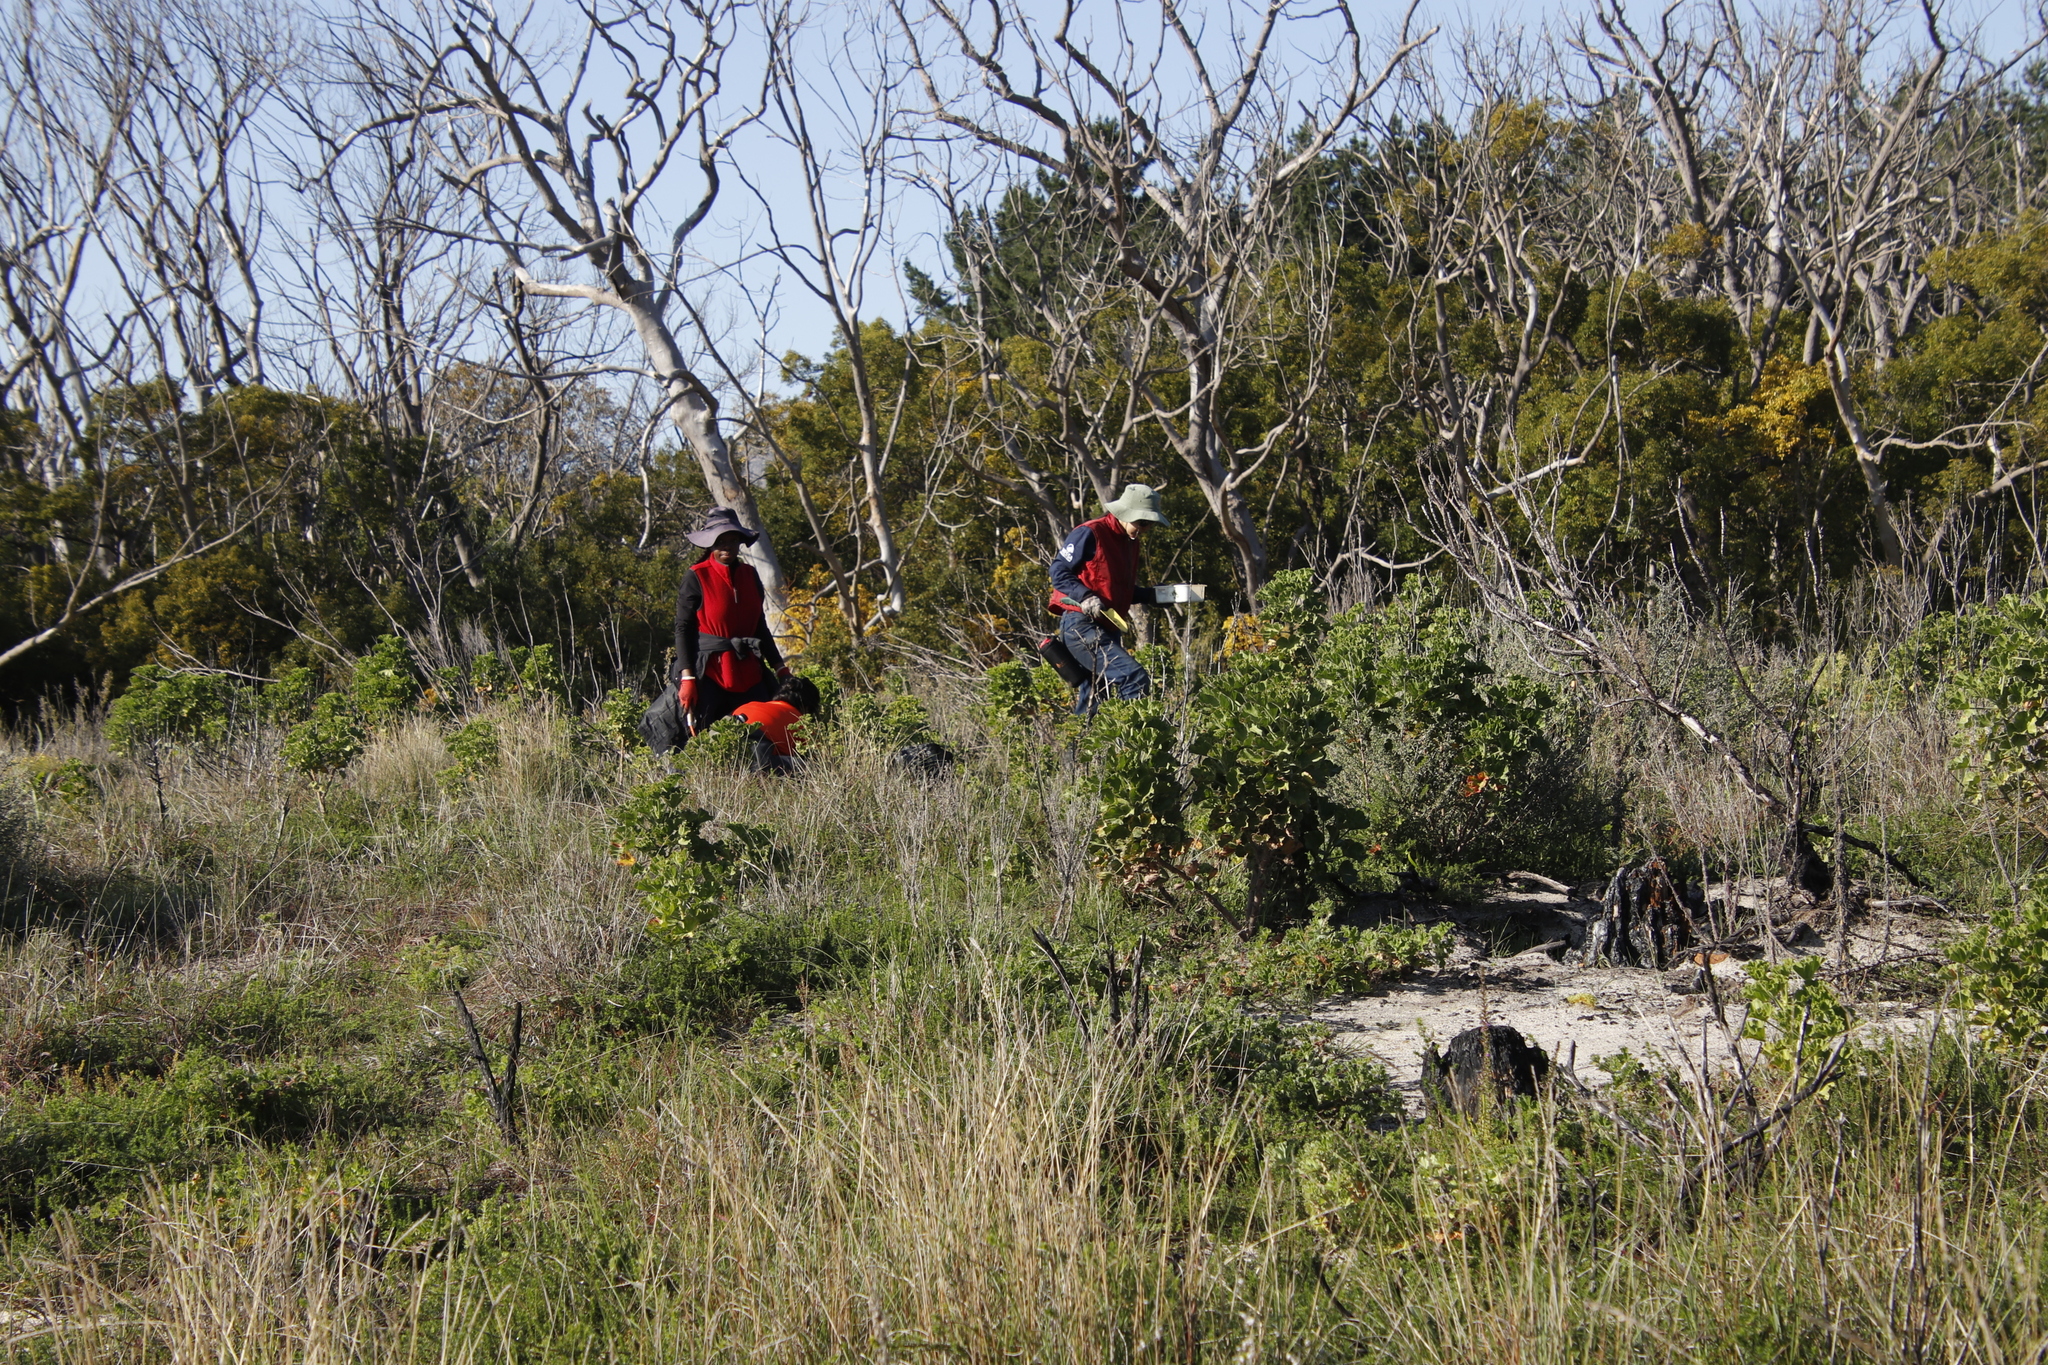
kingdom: Plantae
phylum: Tracheophyta
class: Magnoliopsida
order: Geraniales
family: Geraniaceae
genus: Pelargonium
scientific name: Pelargonium cucullatum
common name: Tree pelargonium
